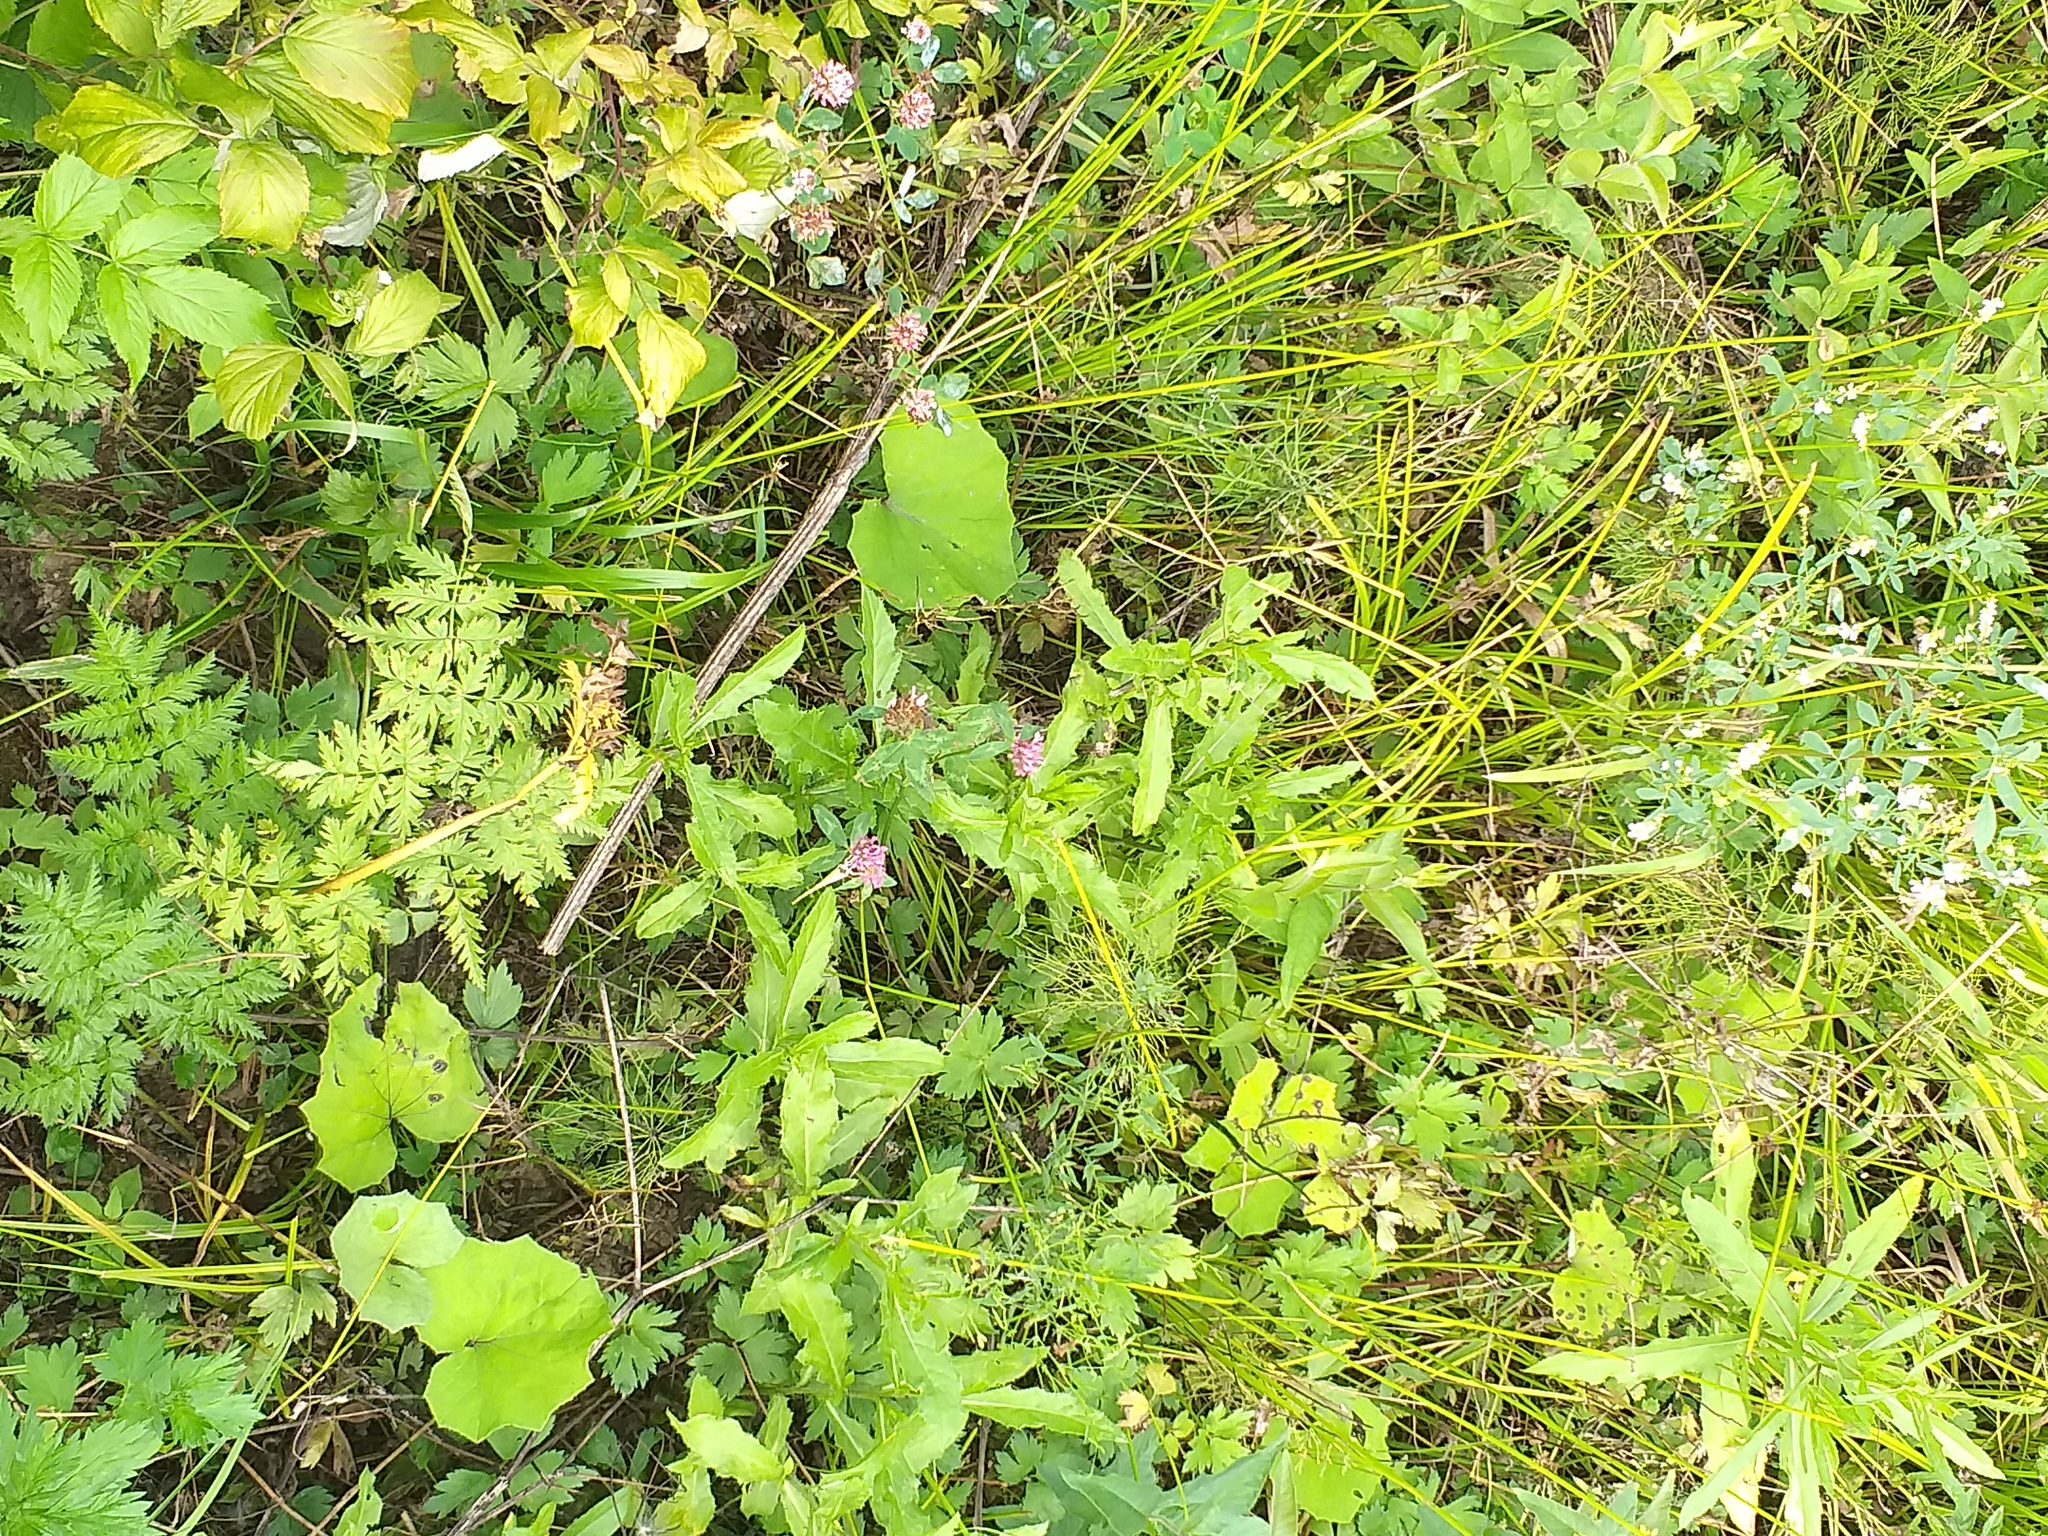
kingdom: Plantae
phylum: Tracheophyta
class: Magnoliopsida
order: Fabales
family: Fabaceae
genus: Trifolium
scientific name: Trifolium pratense
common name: Red clover
